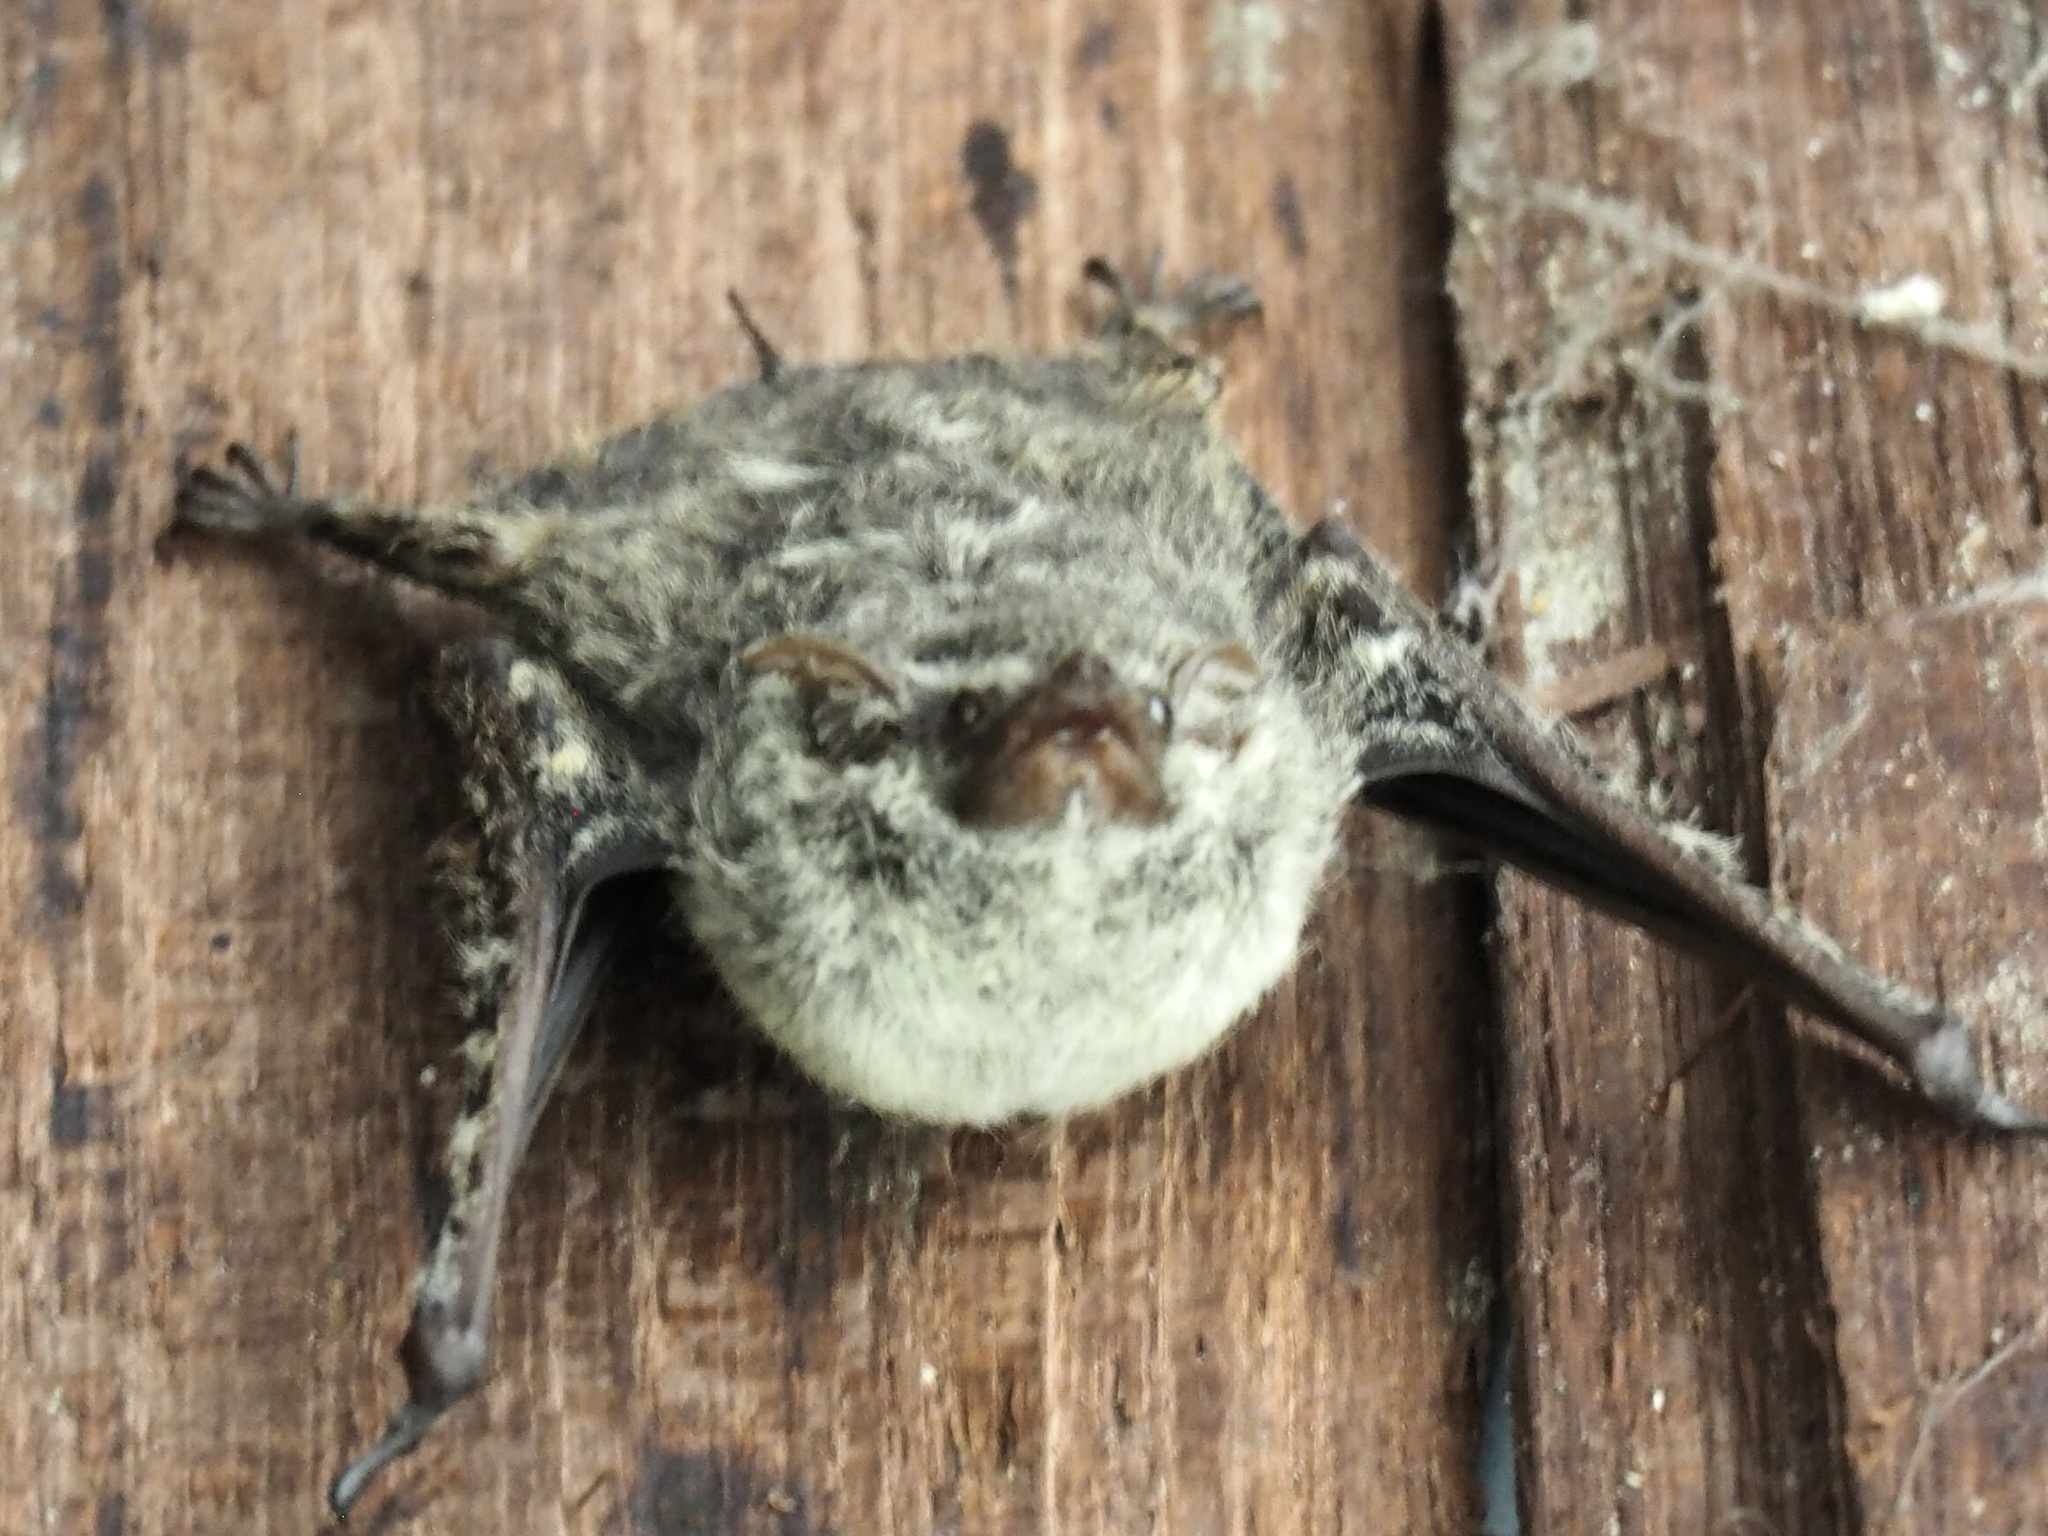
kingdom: Animalia
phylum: Chordata
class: Mammalia
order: Chiroptera
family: Emballonuridae
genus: Rhynchonycteris
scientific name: Rhynchonycteris naso
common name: Proboscis bat
